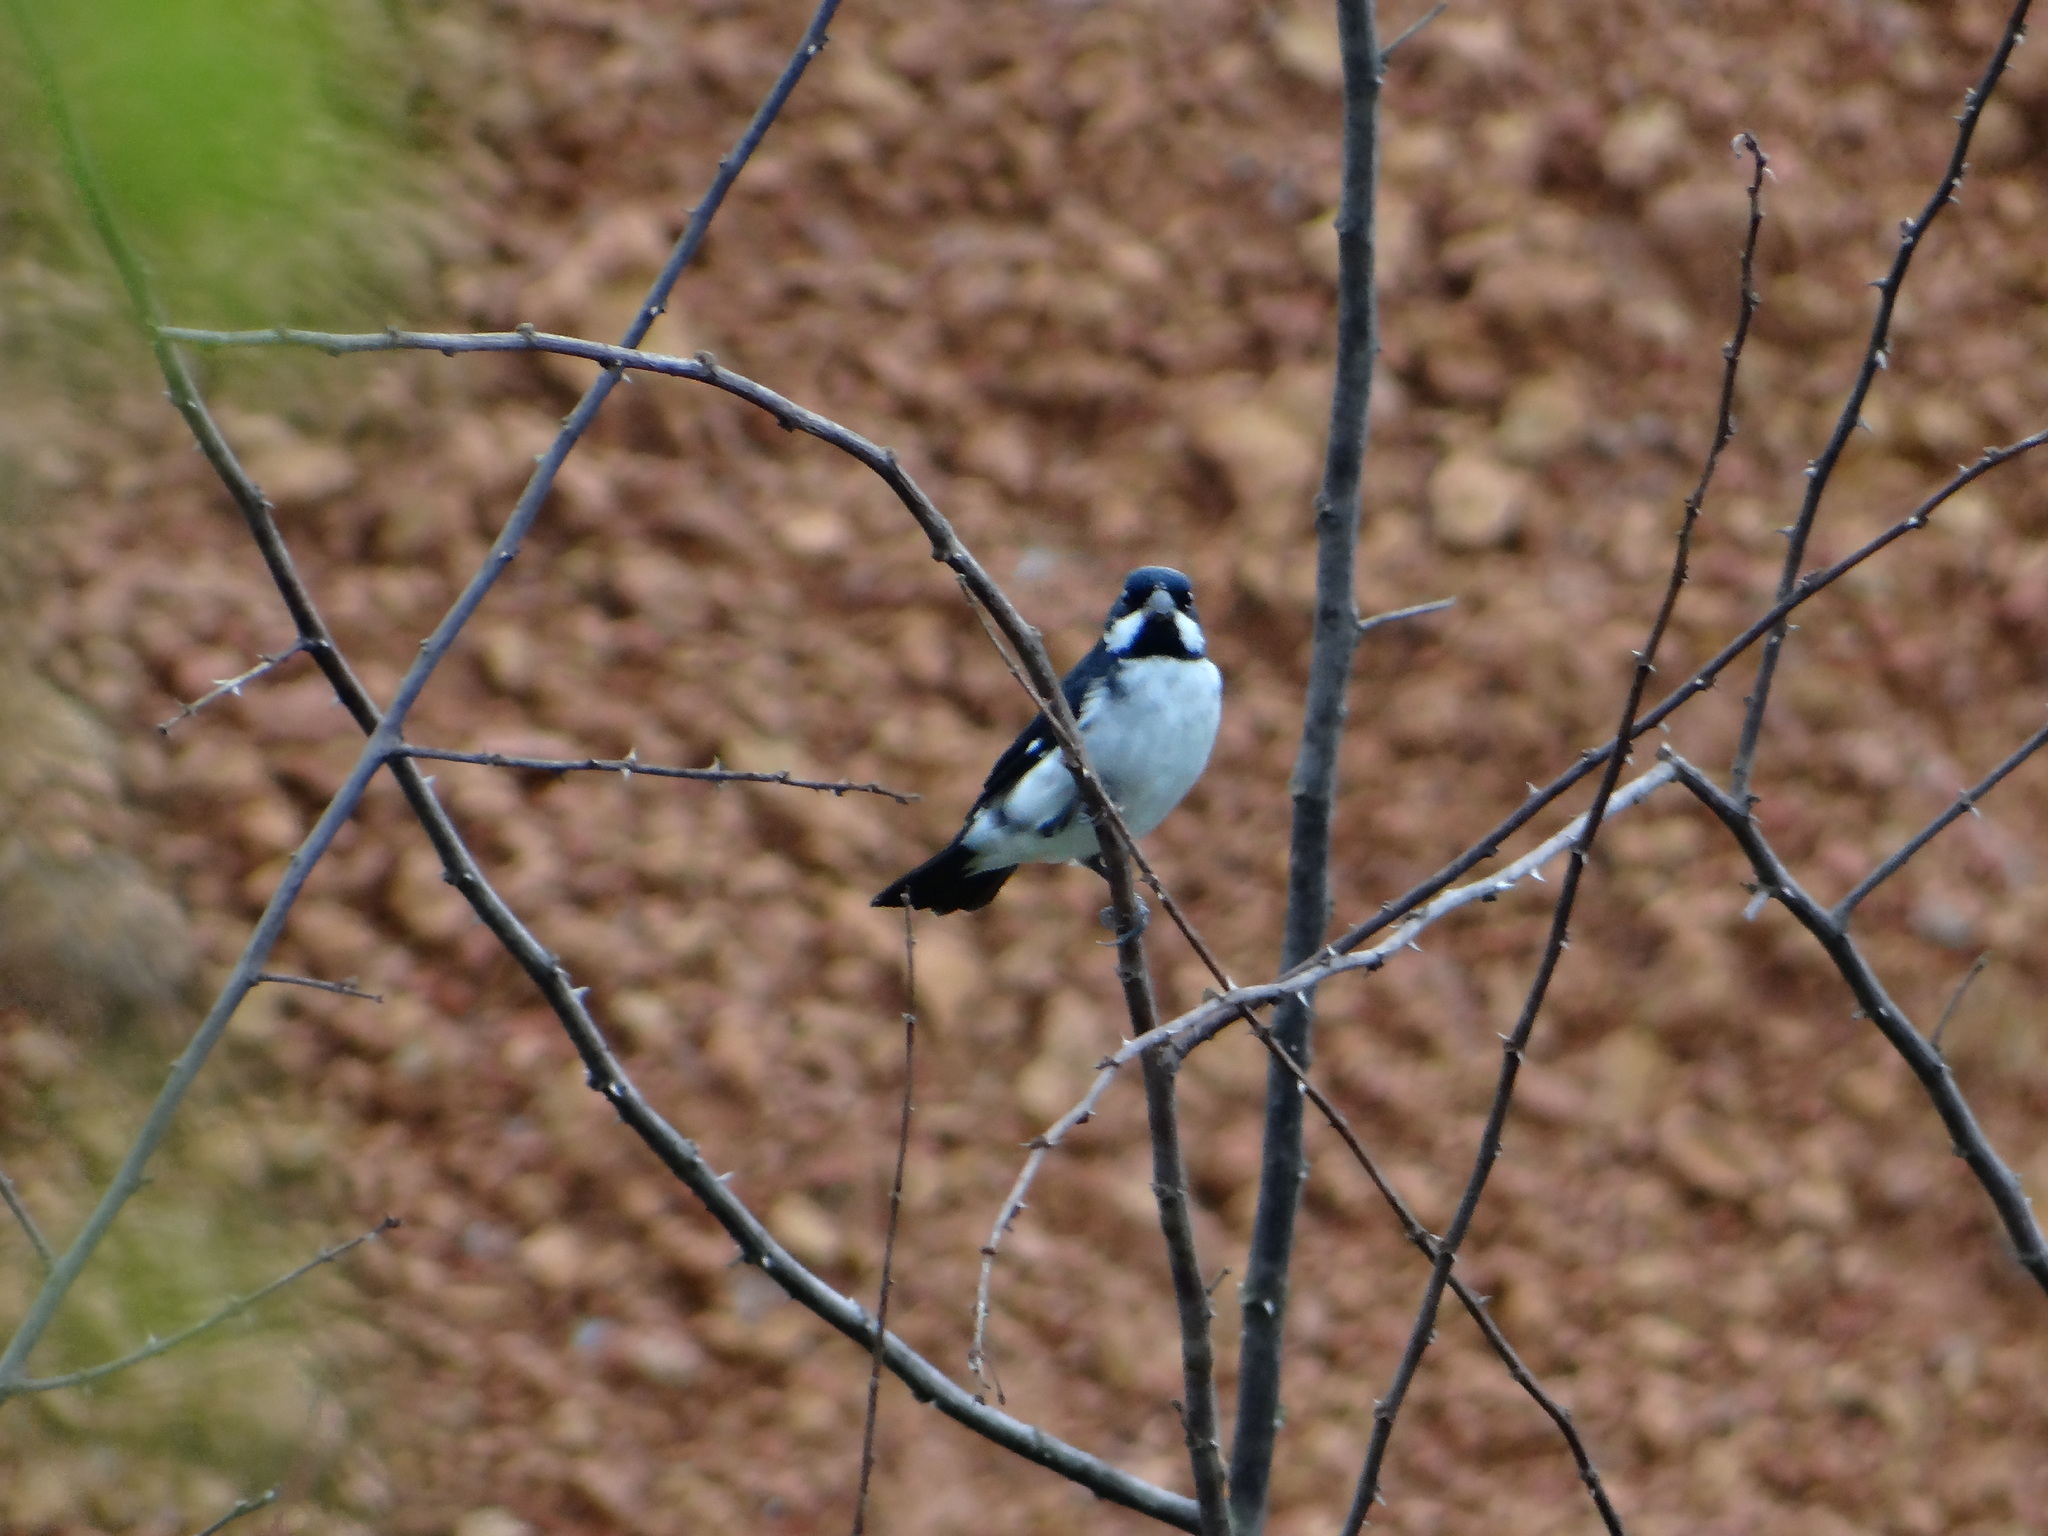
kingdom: Animalia
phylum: Chordata
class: Aves
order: Passeriformes
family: Thraupidae
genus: Sporophila
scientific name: Sporophila bouvronides
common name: Lesson's seedeater
